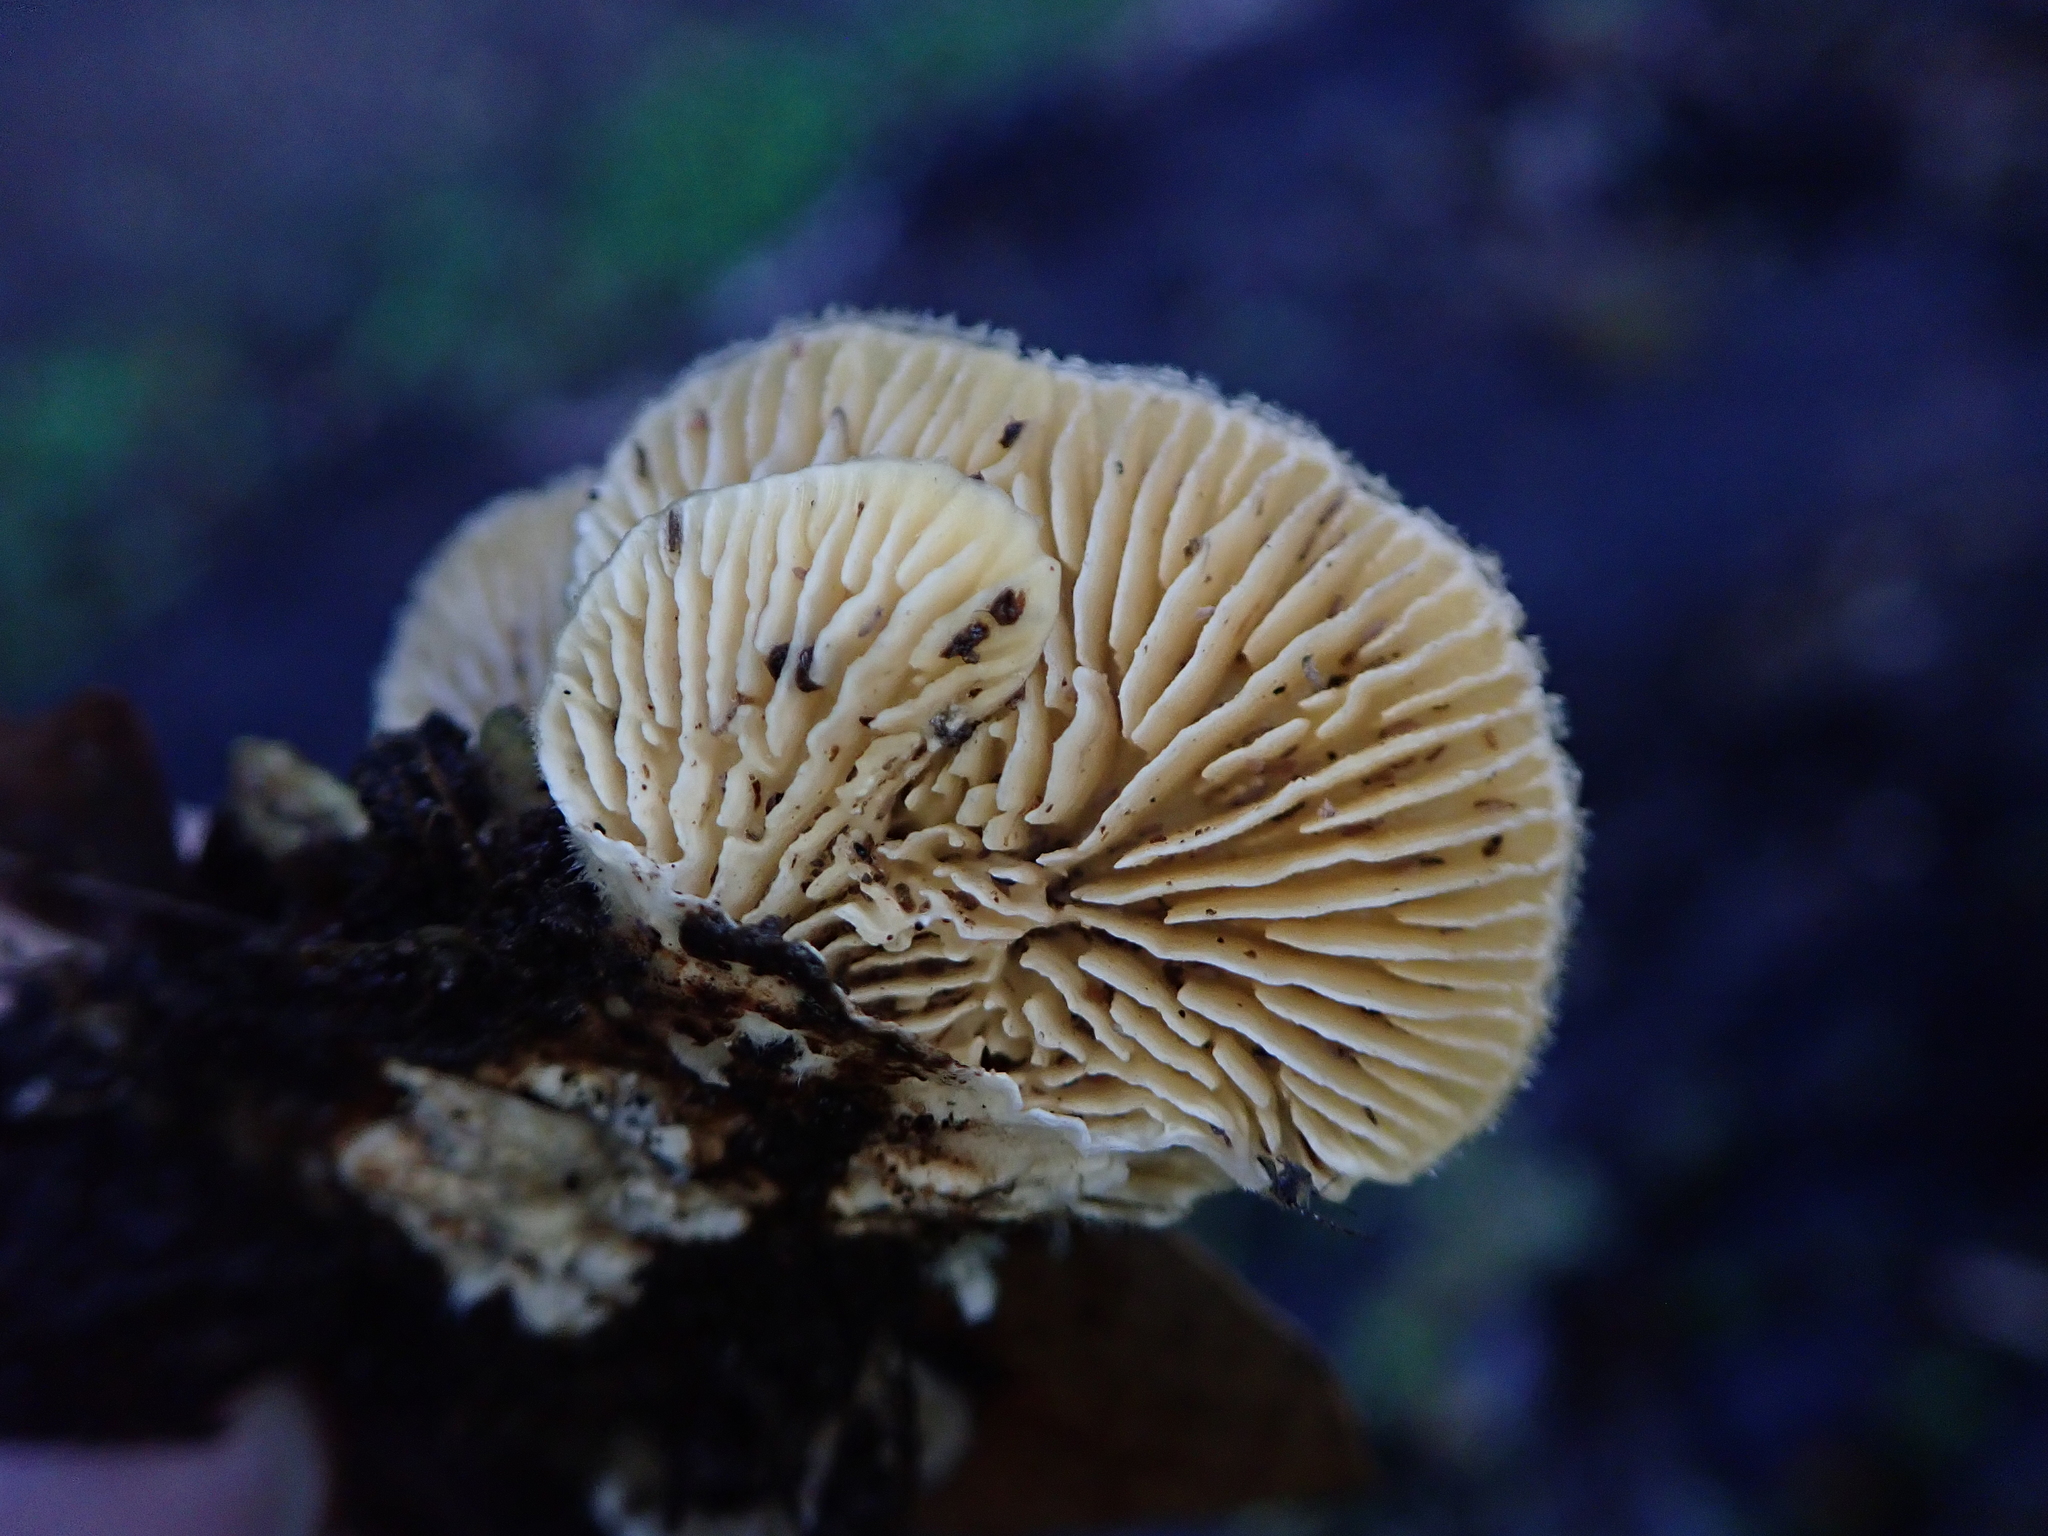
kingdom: Fungi
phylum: Basidiomycota
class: Agaricomycetes
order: Polyporales
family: Polyporaceae
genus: Lenzites
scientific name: Lenzites betulinus
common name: Birch mazegill
